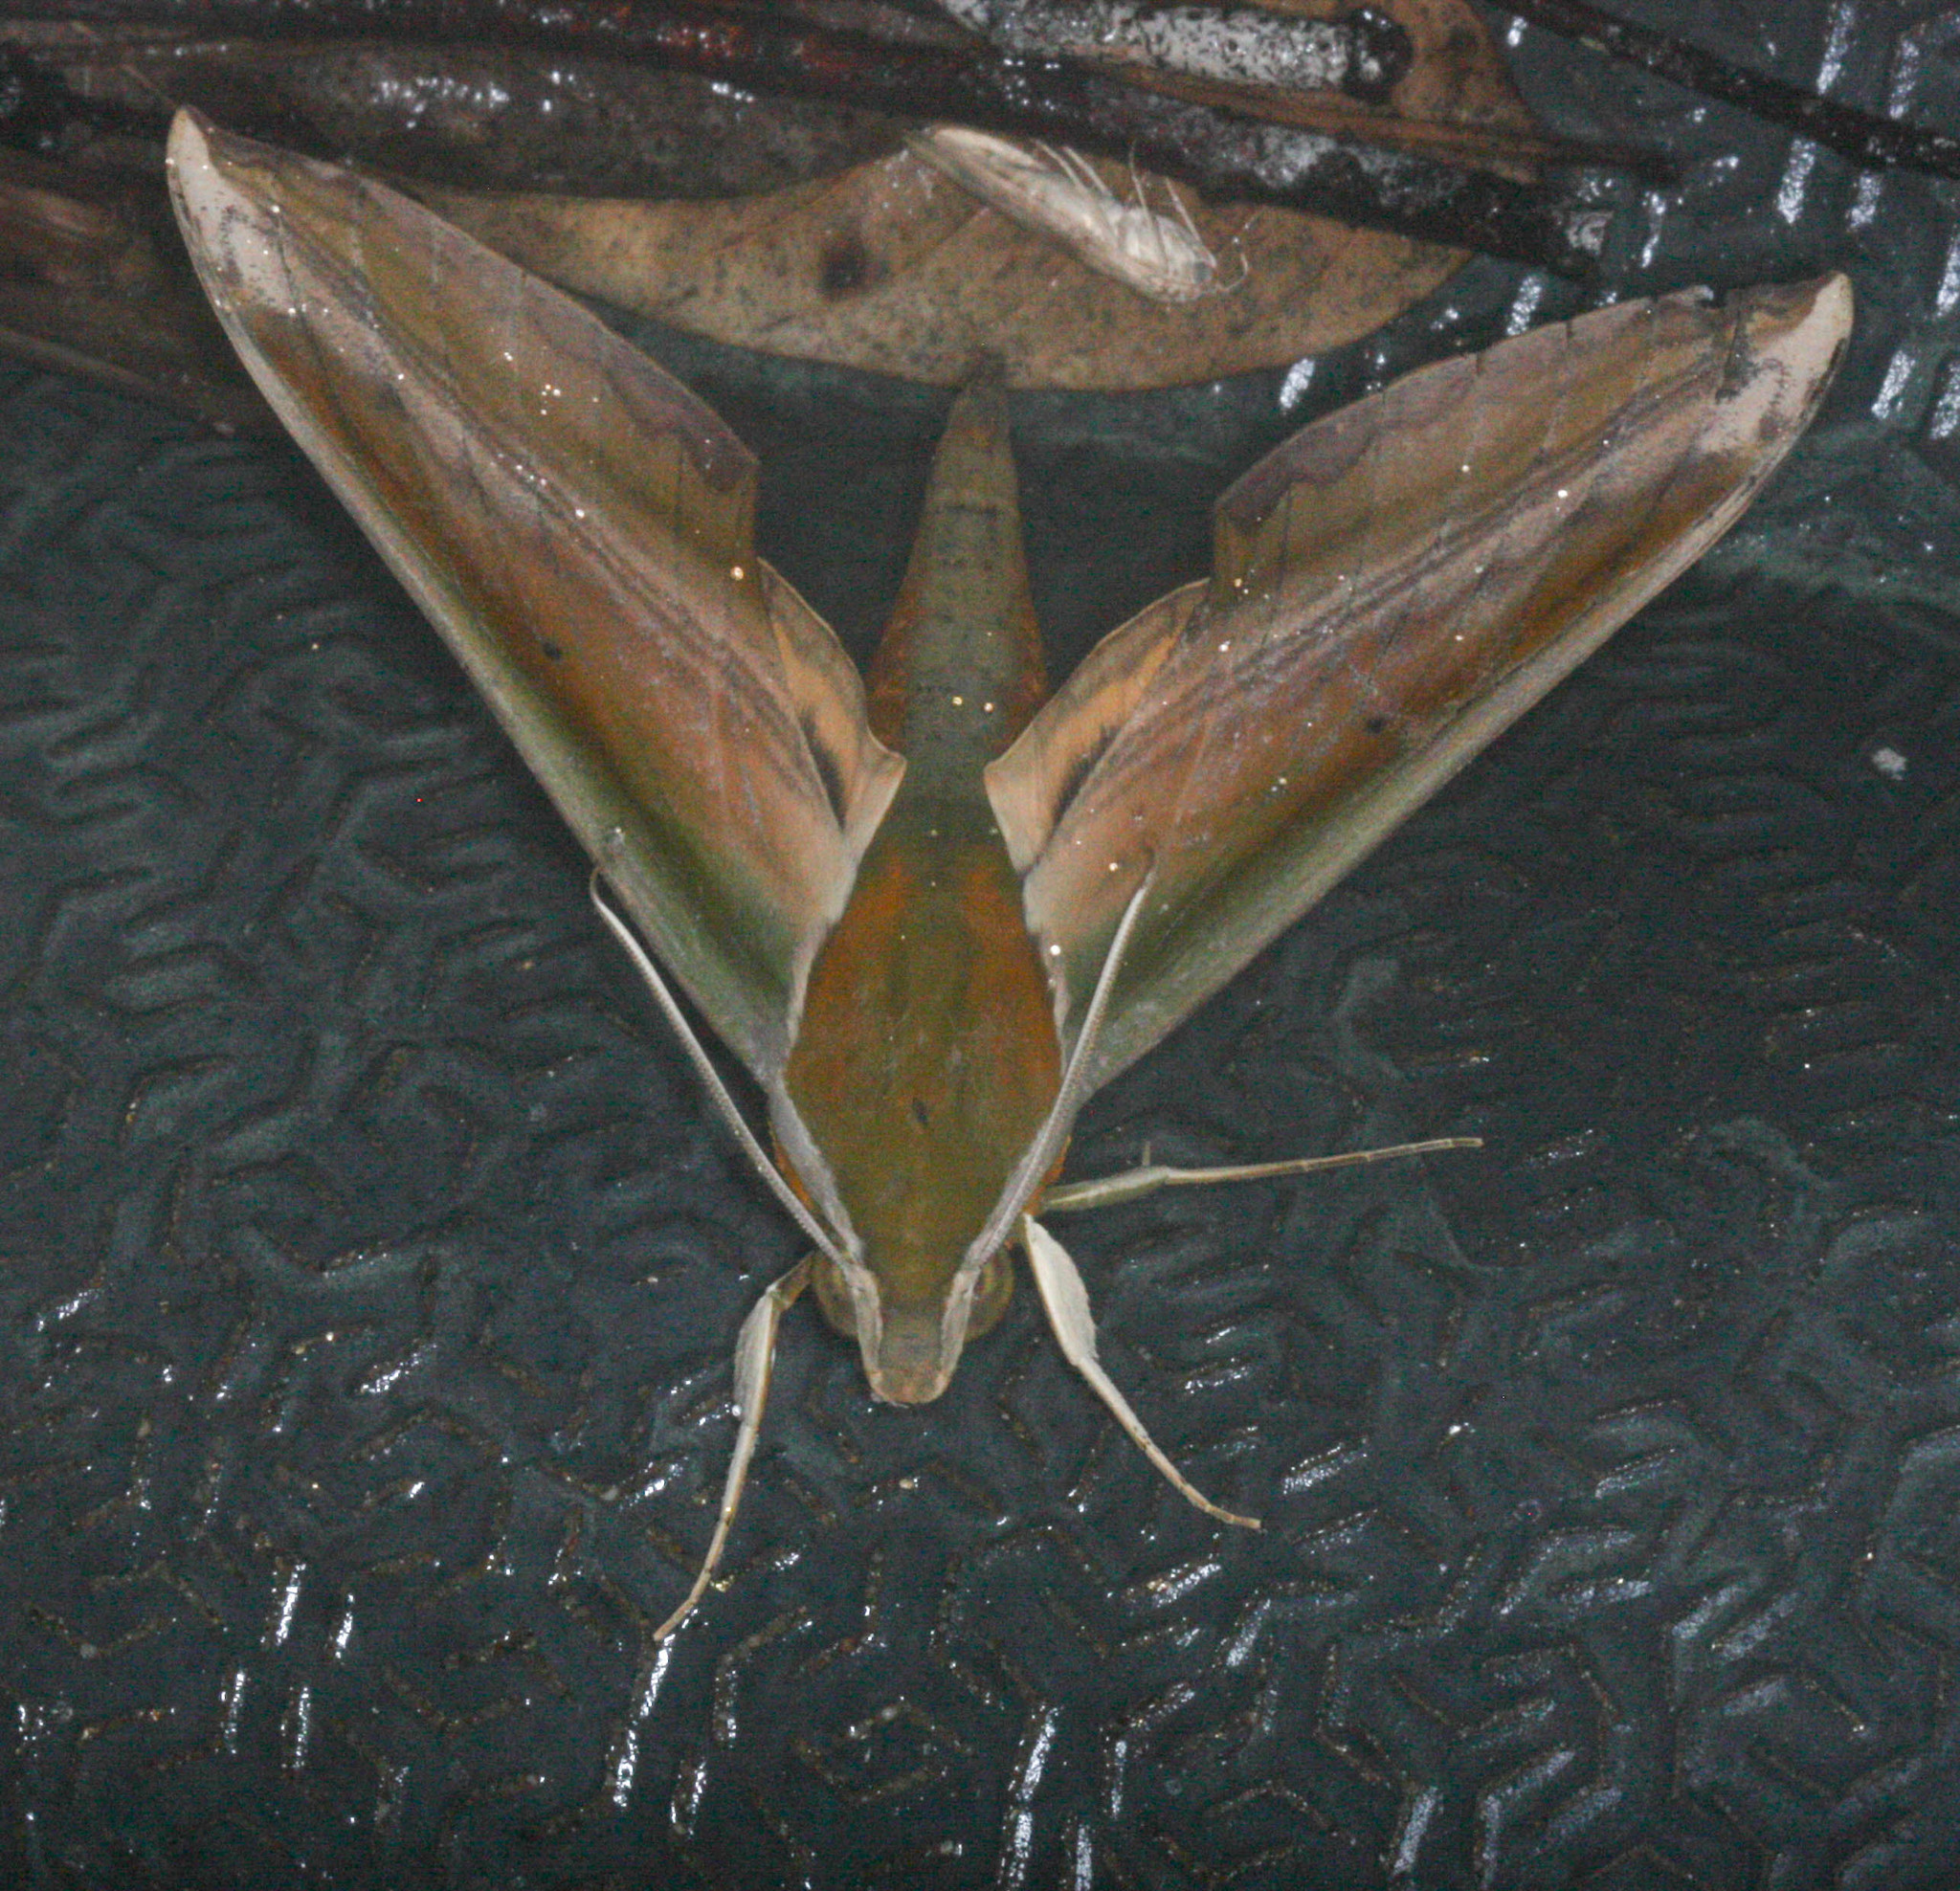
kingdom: Animalia
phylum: Arthropoda
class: Insecta
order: Lepidoptera
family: Sphingidae
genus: Theretra
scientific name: Theretra nessus
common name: Yam hawk moth
